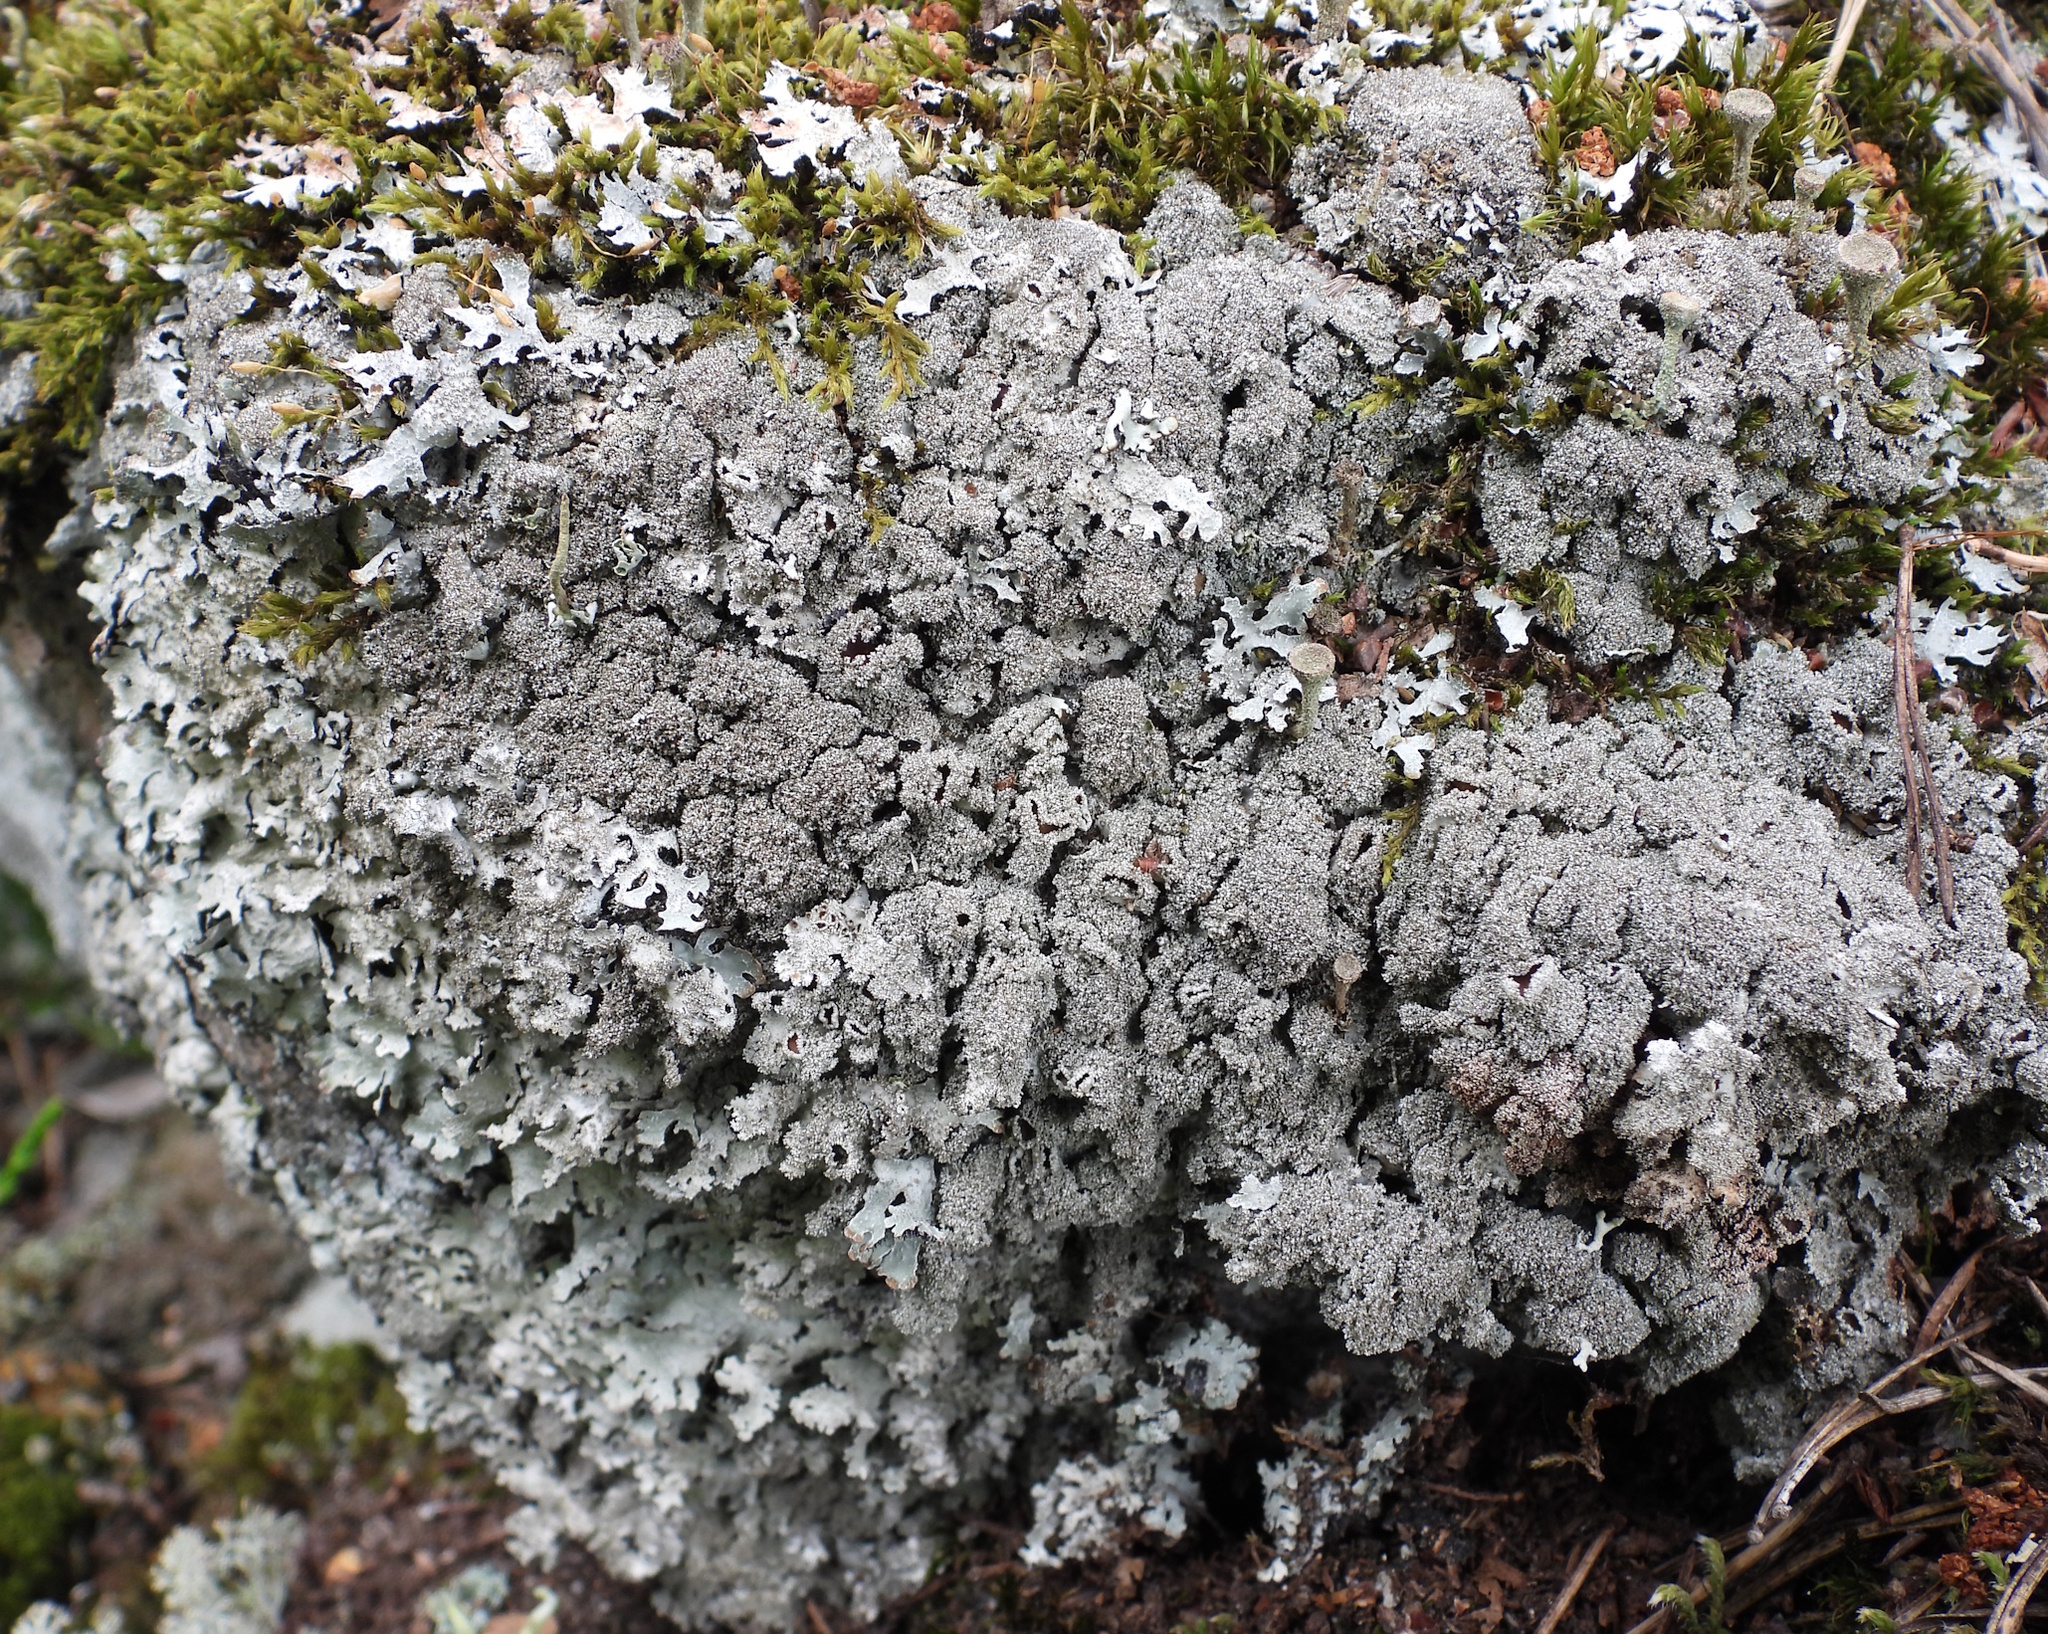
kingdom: Fungi
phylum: Ascomycota
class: Lecanoromycetes
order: Lecanorales
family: Parmeliaceae
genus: Parmelia
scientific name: Parmelia saxatilis
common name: Salted shield lichen
